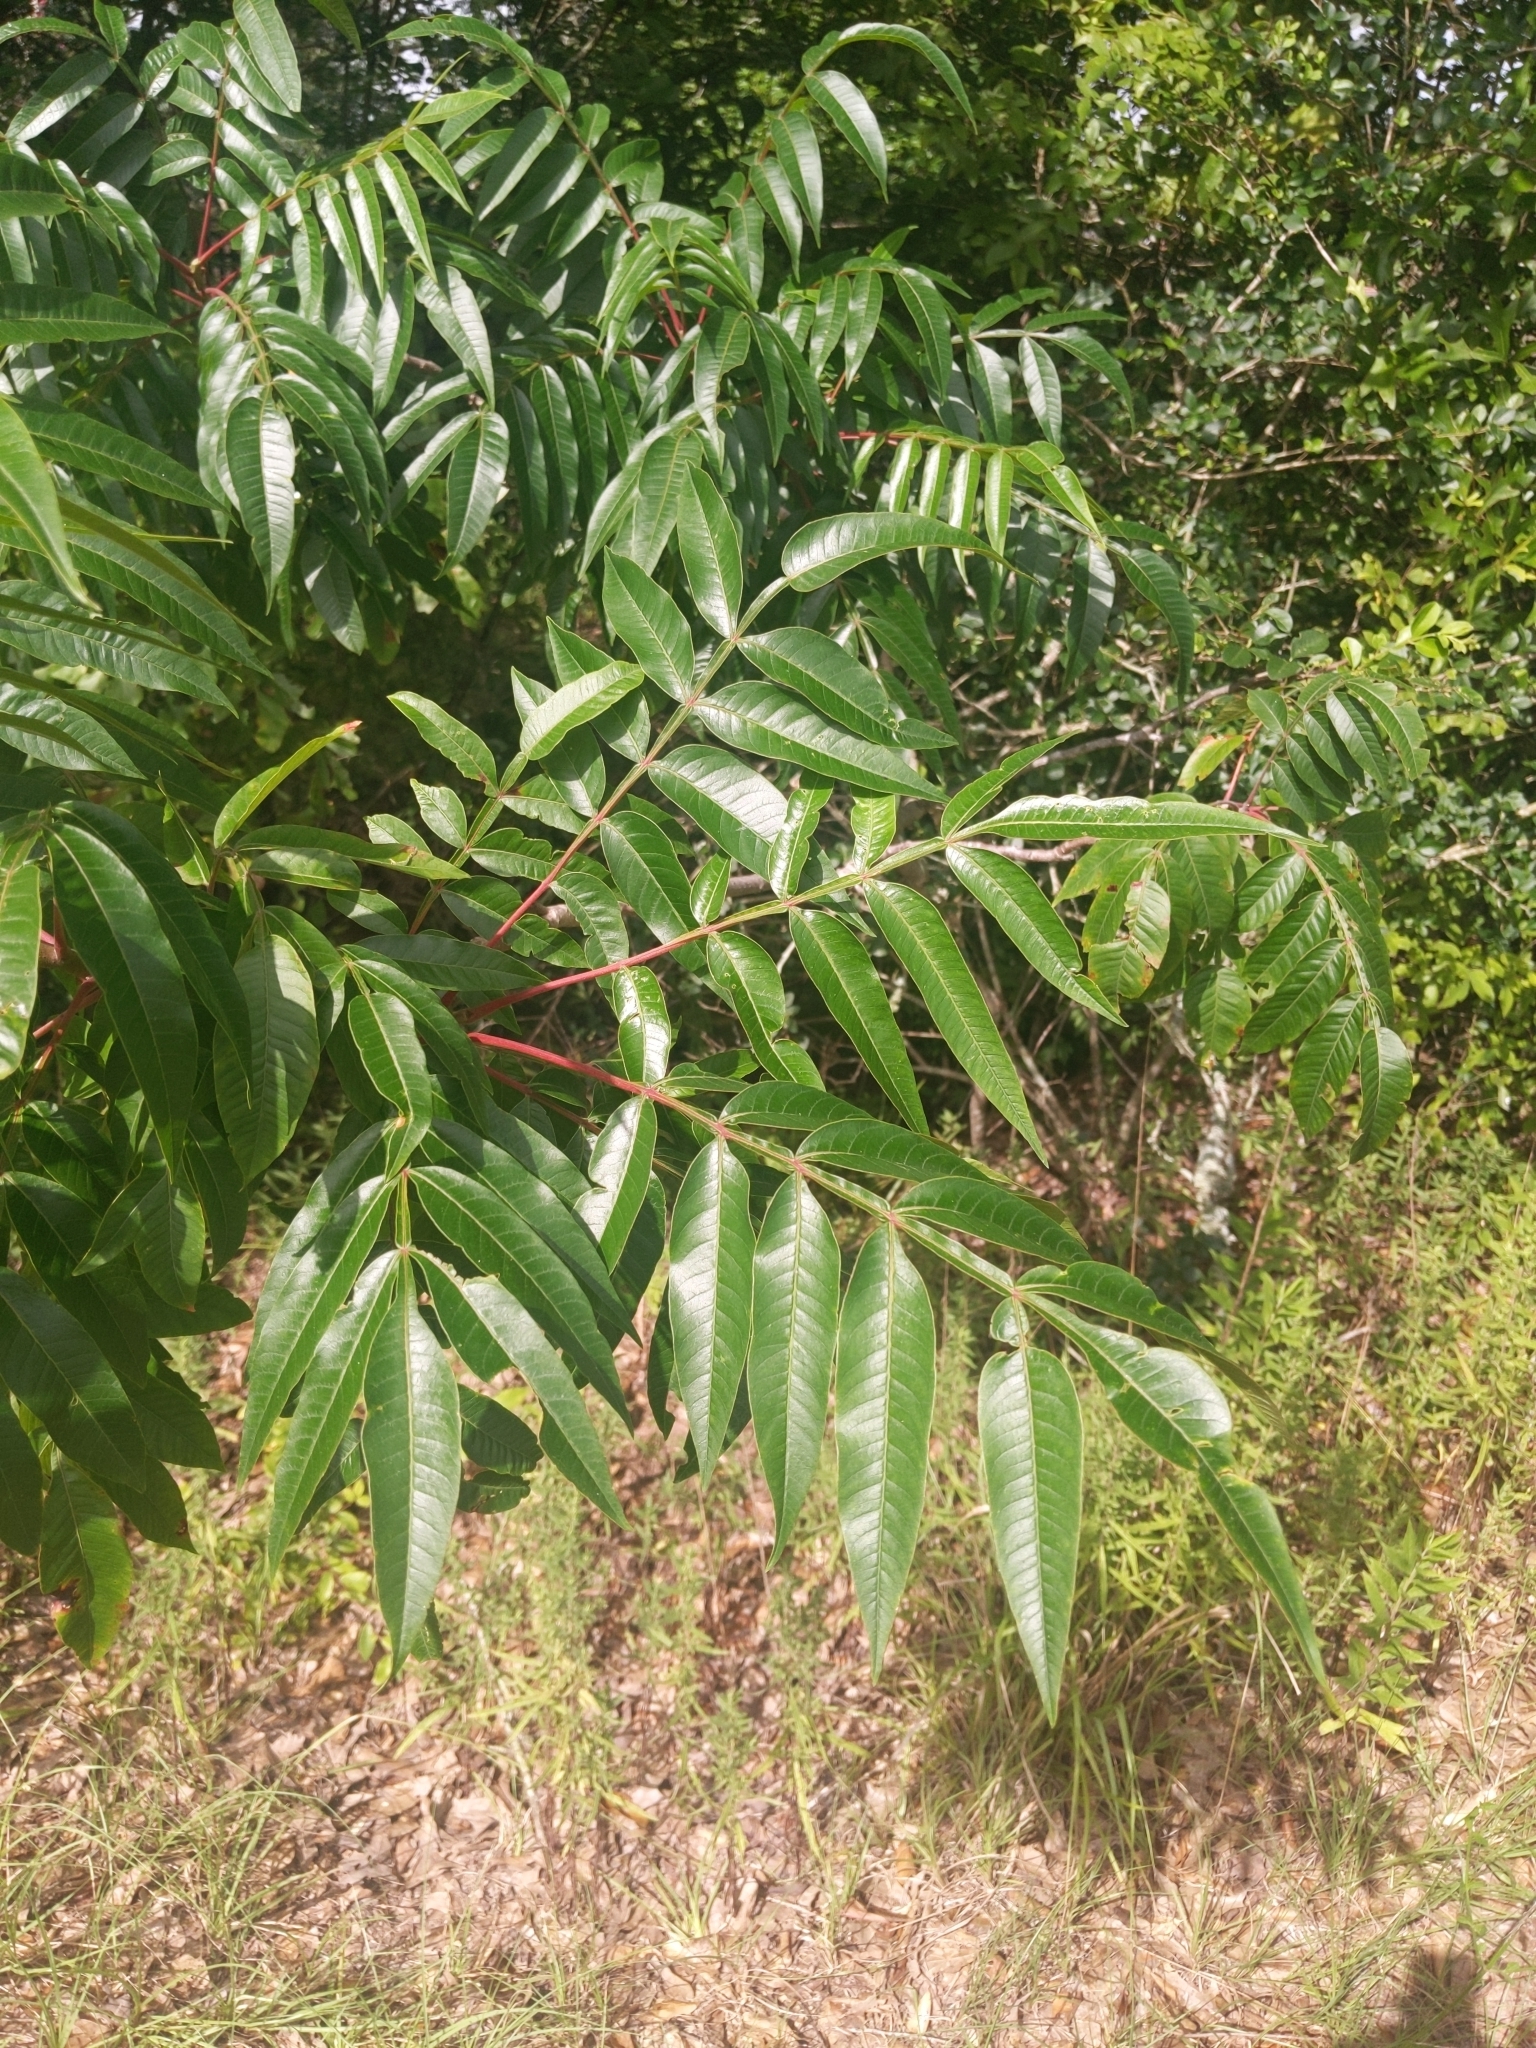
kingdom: Plantae
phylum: Tracheophyta
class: Magnoliopsida
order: Sapindales
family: Anacardiaceae
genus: Rhus
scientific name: Rhus copallina
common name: Shining sumac
